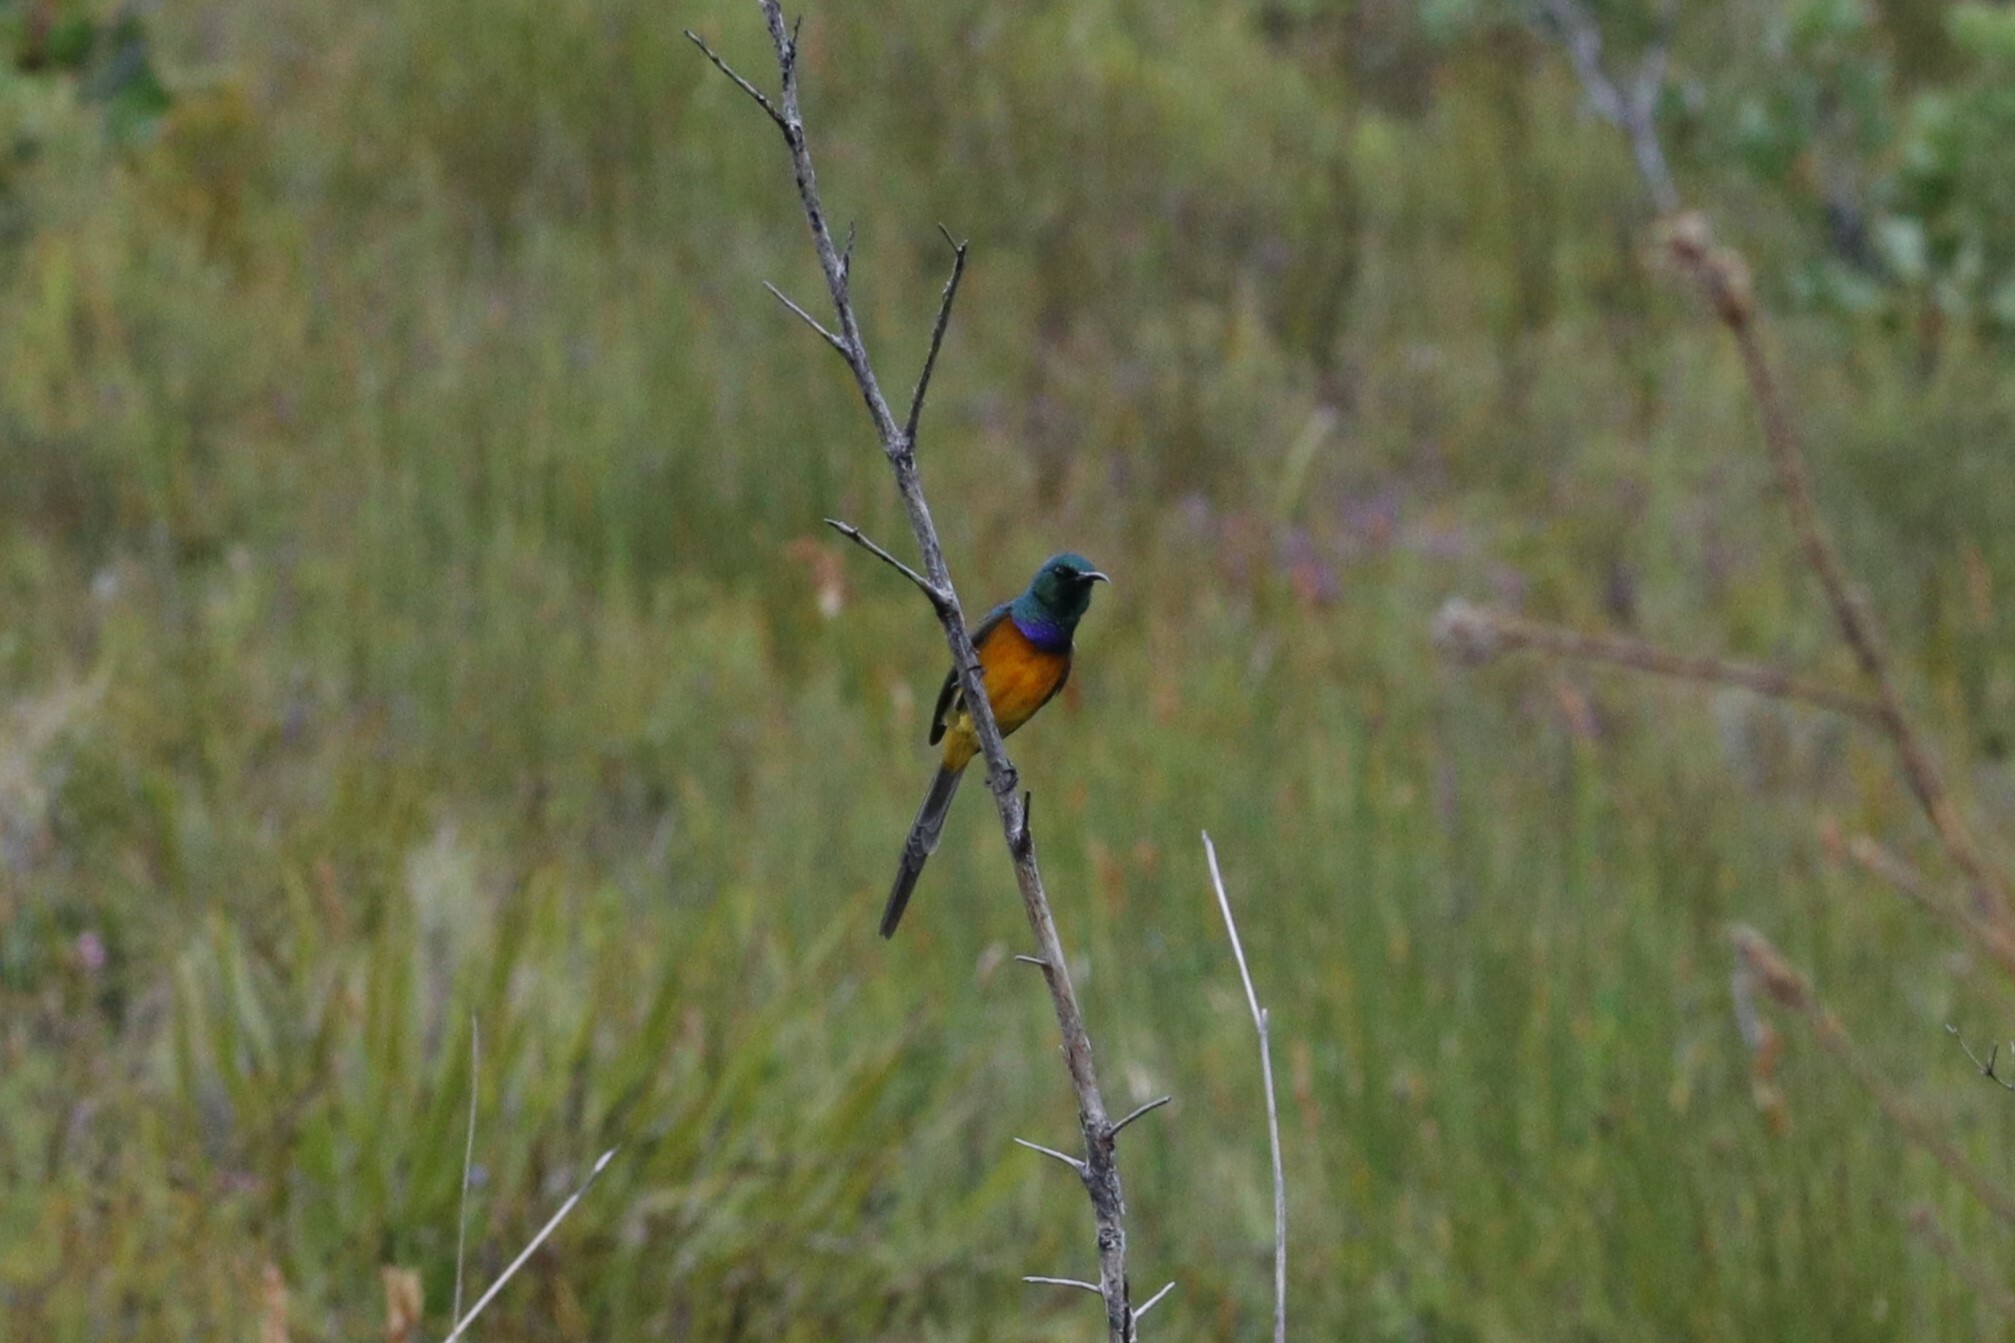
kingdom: Animalia
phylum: Chordata
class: Aves
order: Passeriformes
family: Nectariniidae
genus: Anthobaphes
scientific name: Anthobaphes violacea
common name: Orange-breasted sunbird
